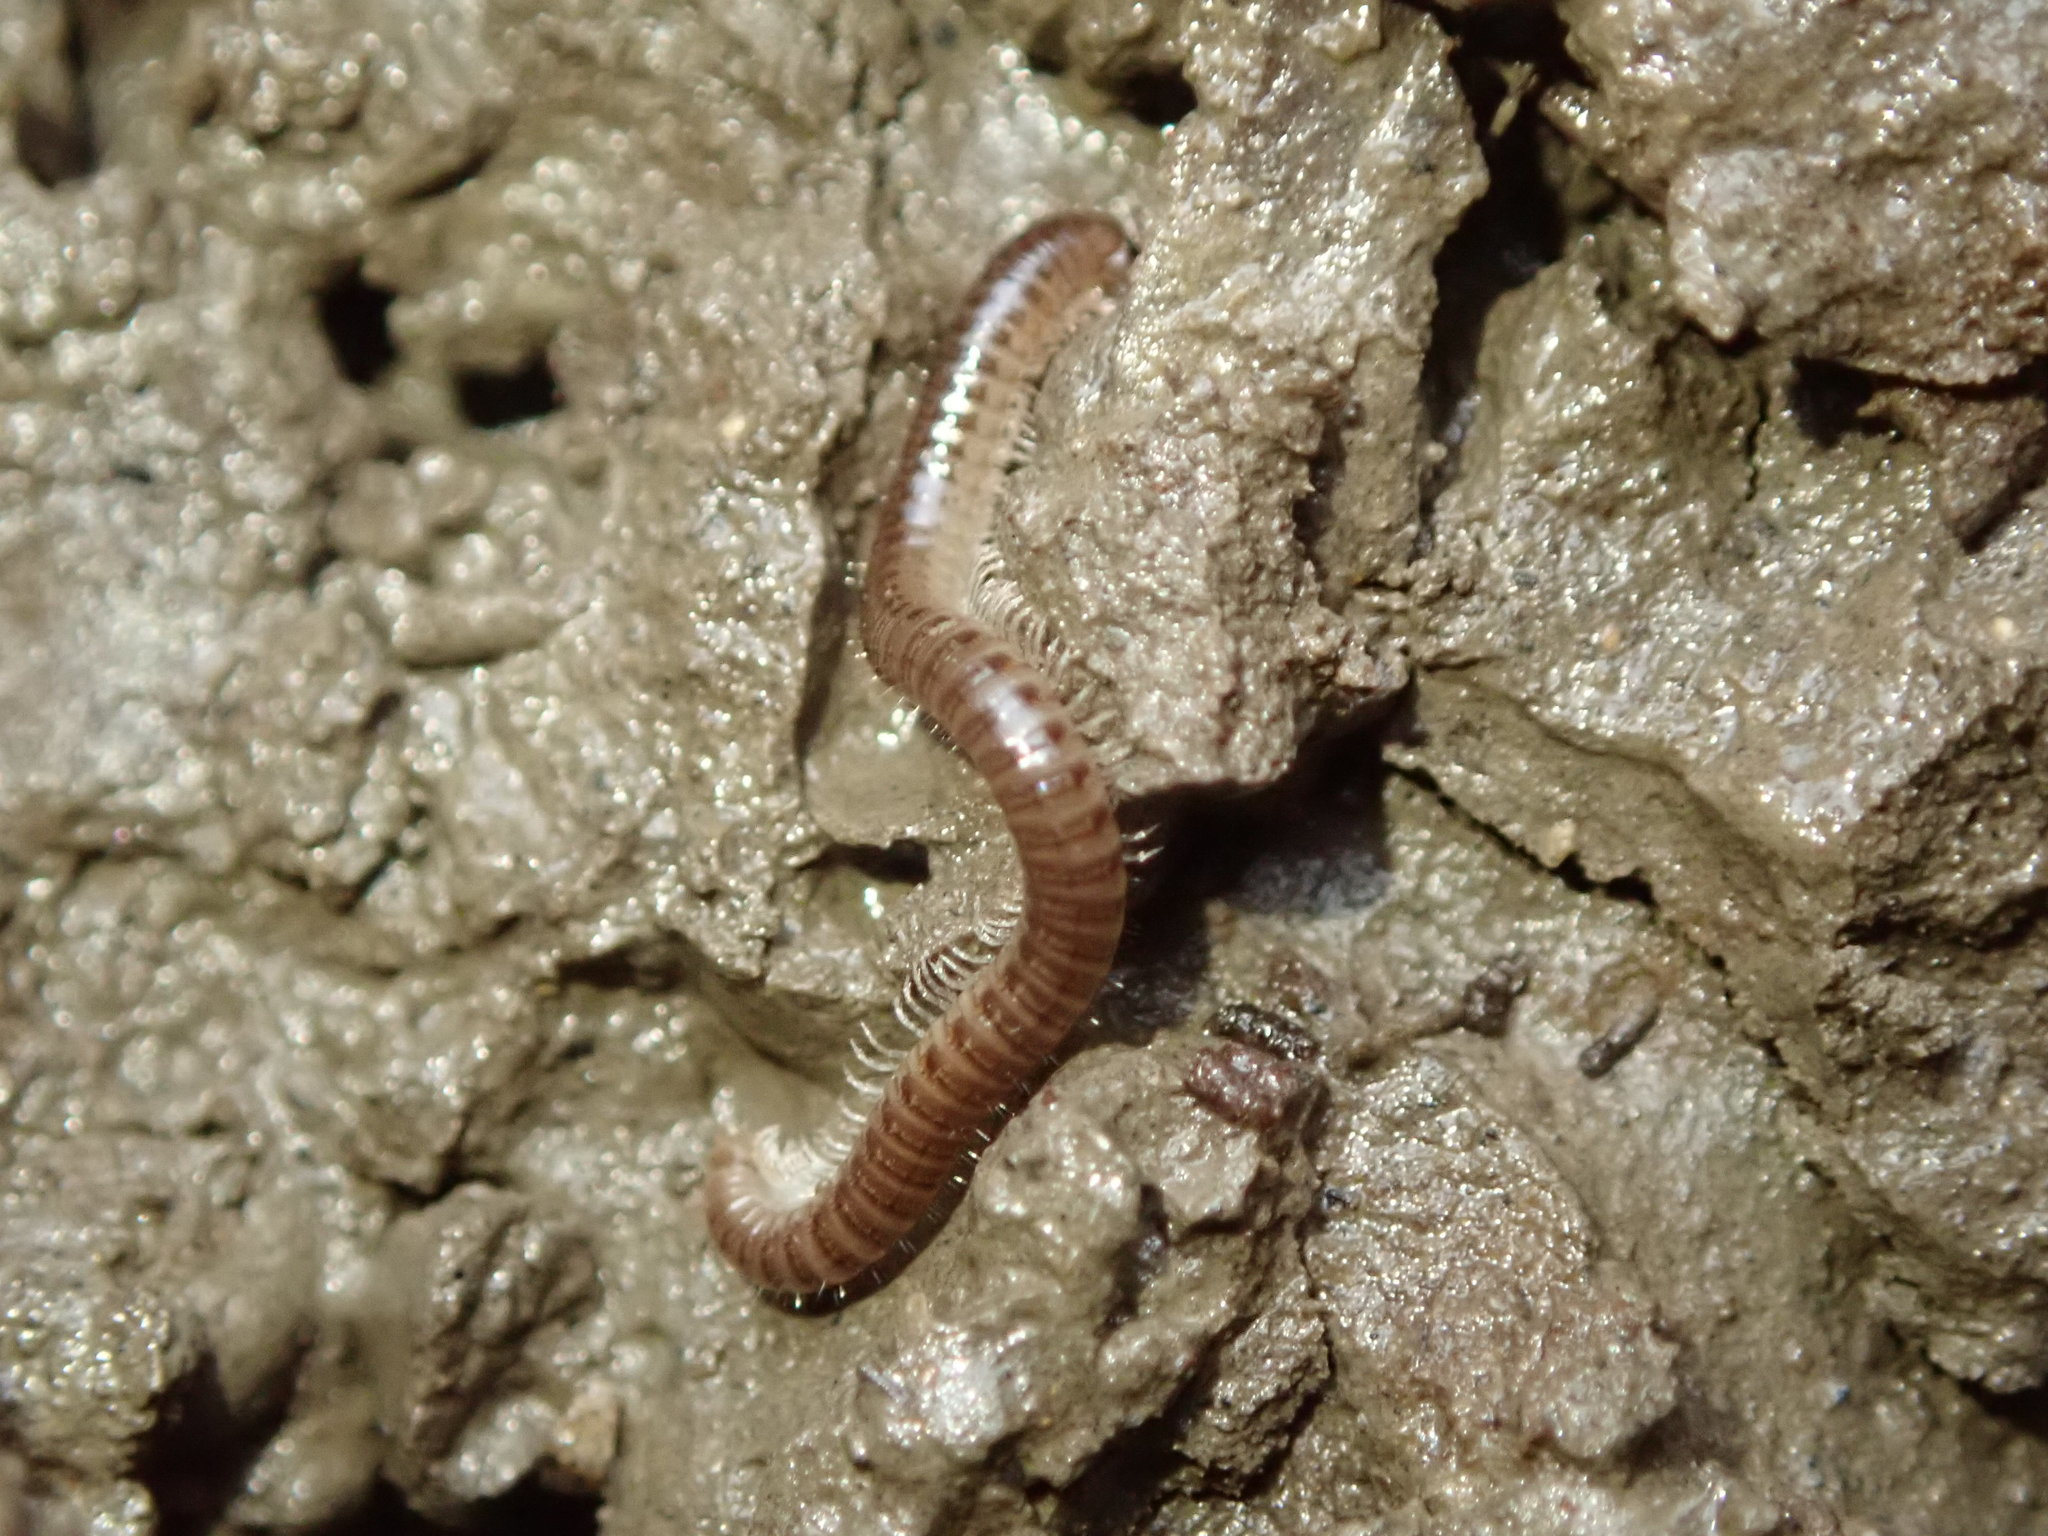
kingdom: Animalia
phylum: Arthropoda
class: Diplopoda
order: Julida
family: Julidae
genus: Ophyiulus
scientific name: Ophyiulus pilosus
